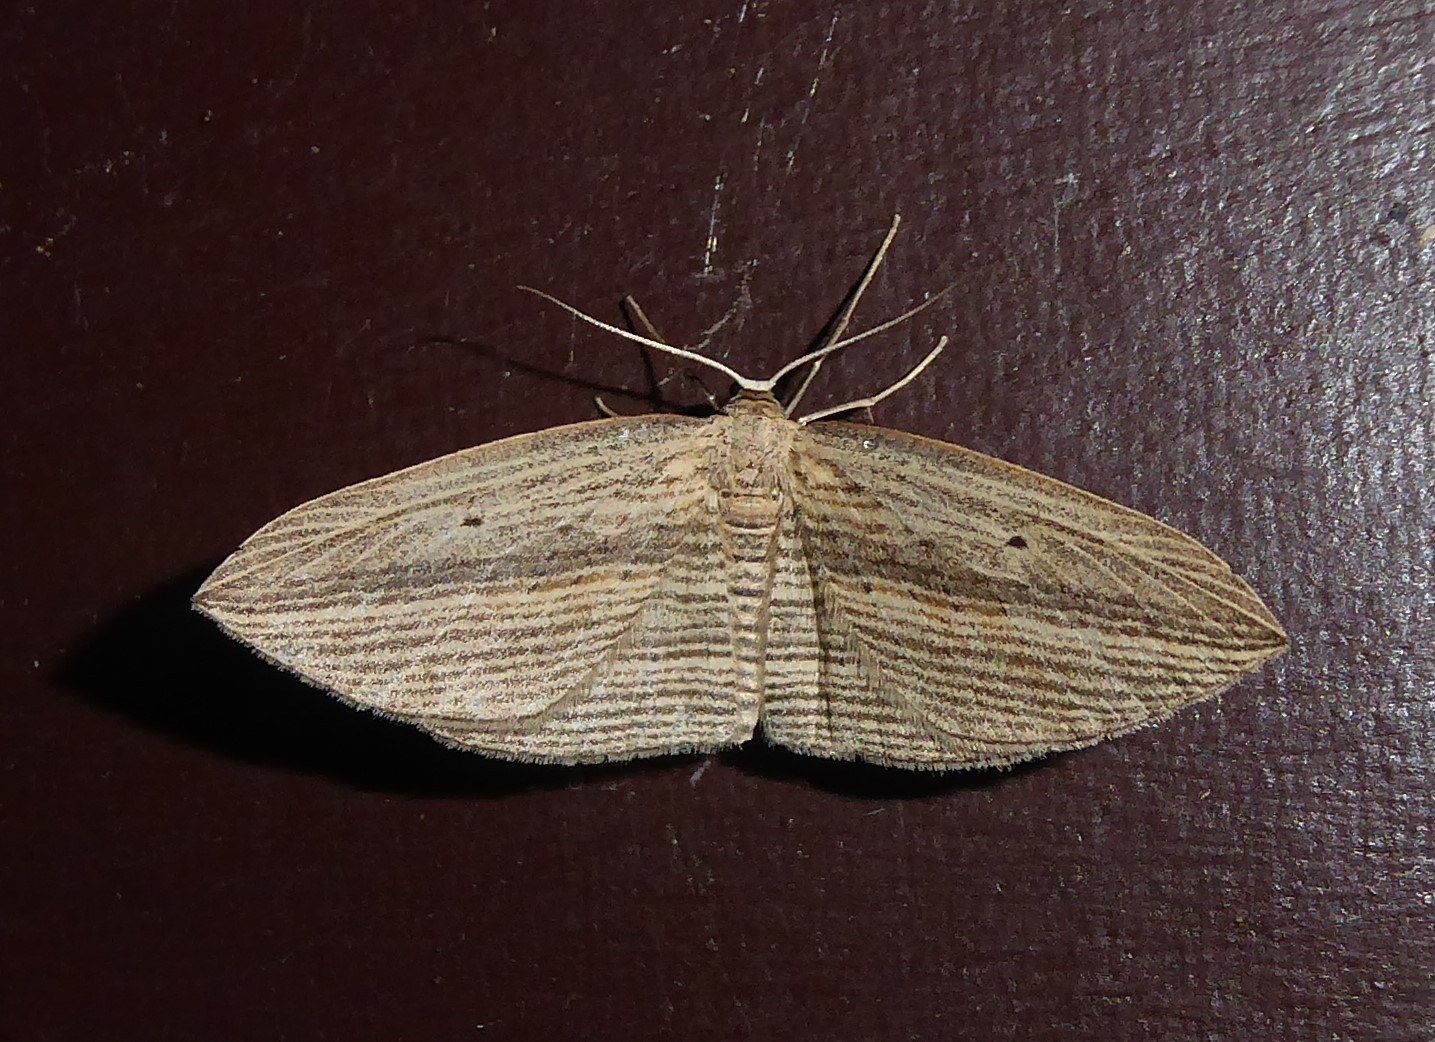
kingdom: Animalia
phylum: Arthropoda
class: Insecta
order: Lepidoptera
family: Geometridae
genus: Epiphryne
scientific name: Epiphryne verriculata
